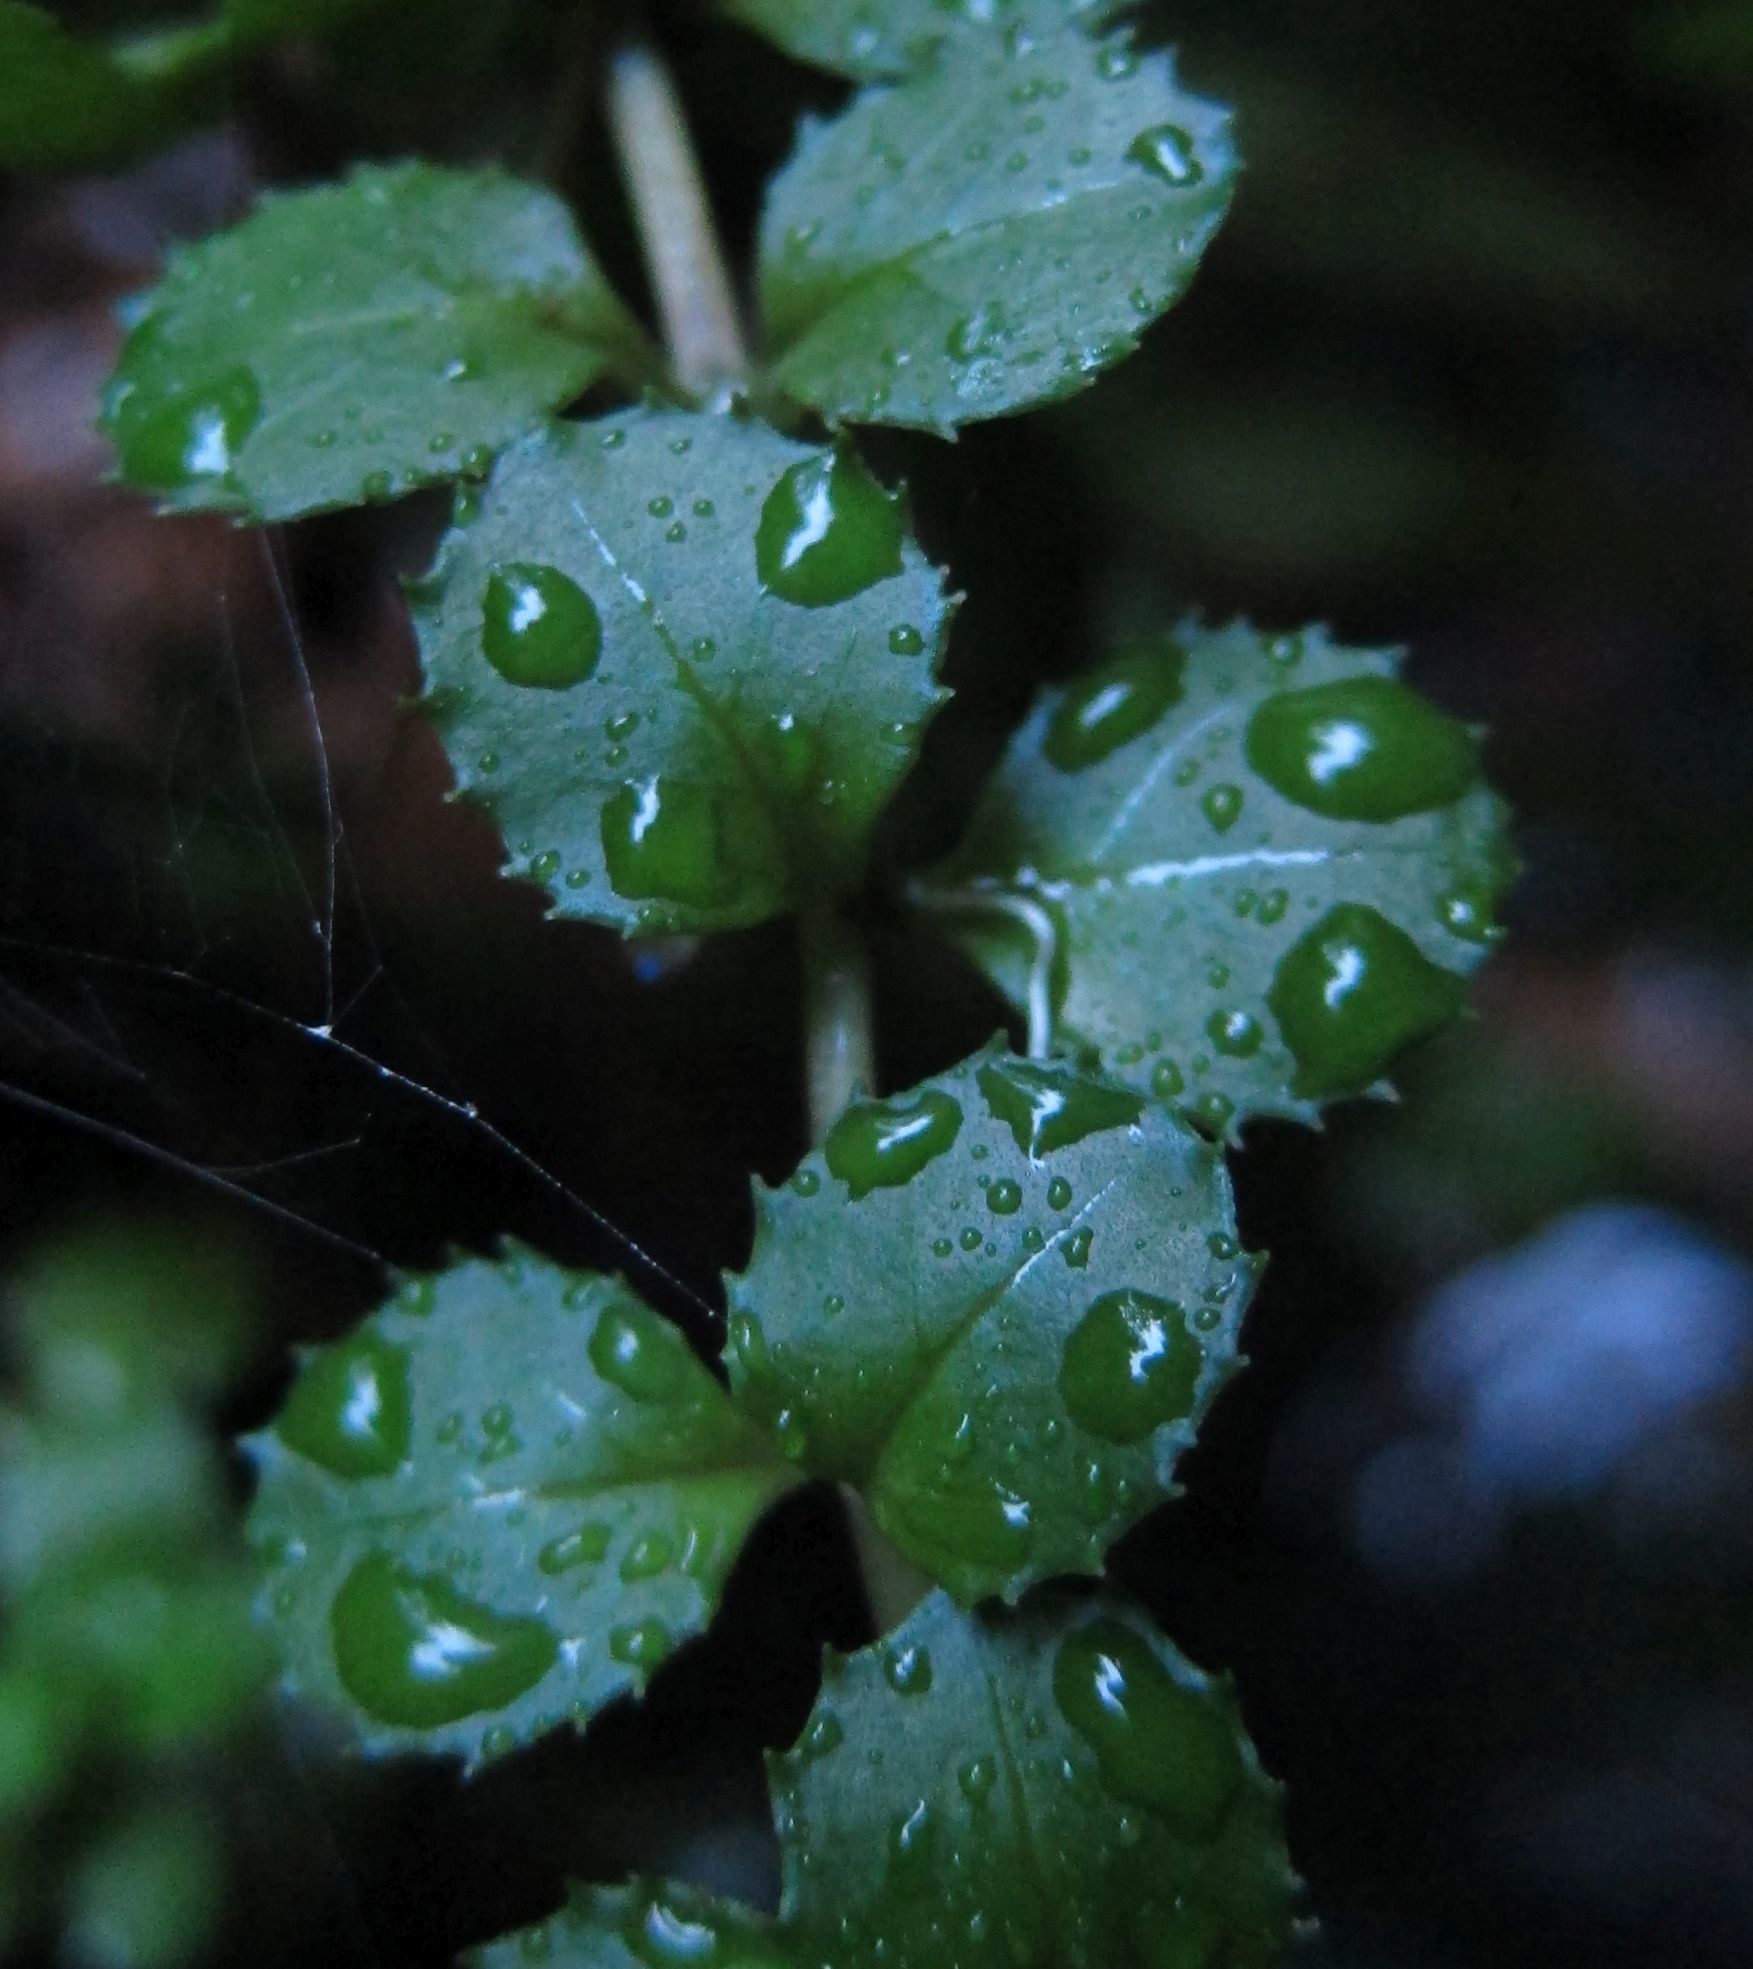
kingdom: Plantae
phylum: Tracheophyta
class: Magnoliopsida
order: Myrtales
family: Onagraceae
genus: Epilobium
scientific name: Epilobium pedunculare
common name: Rockery willowherb
